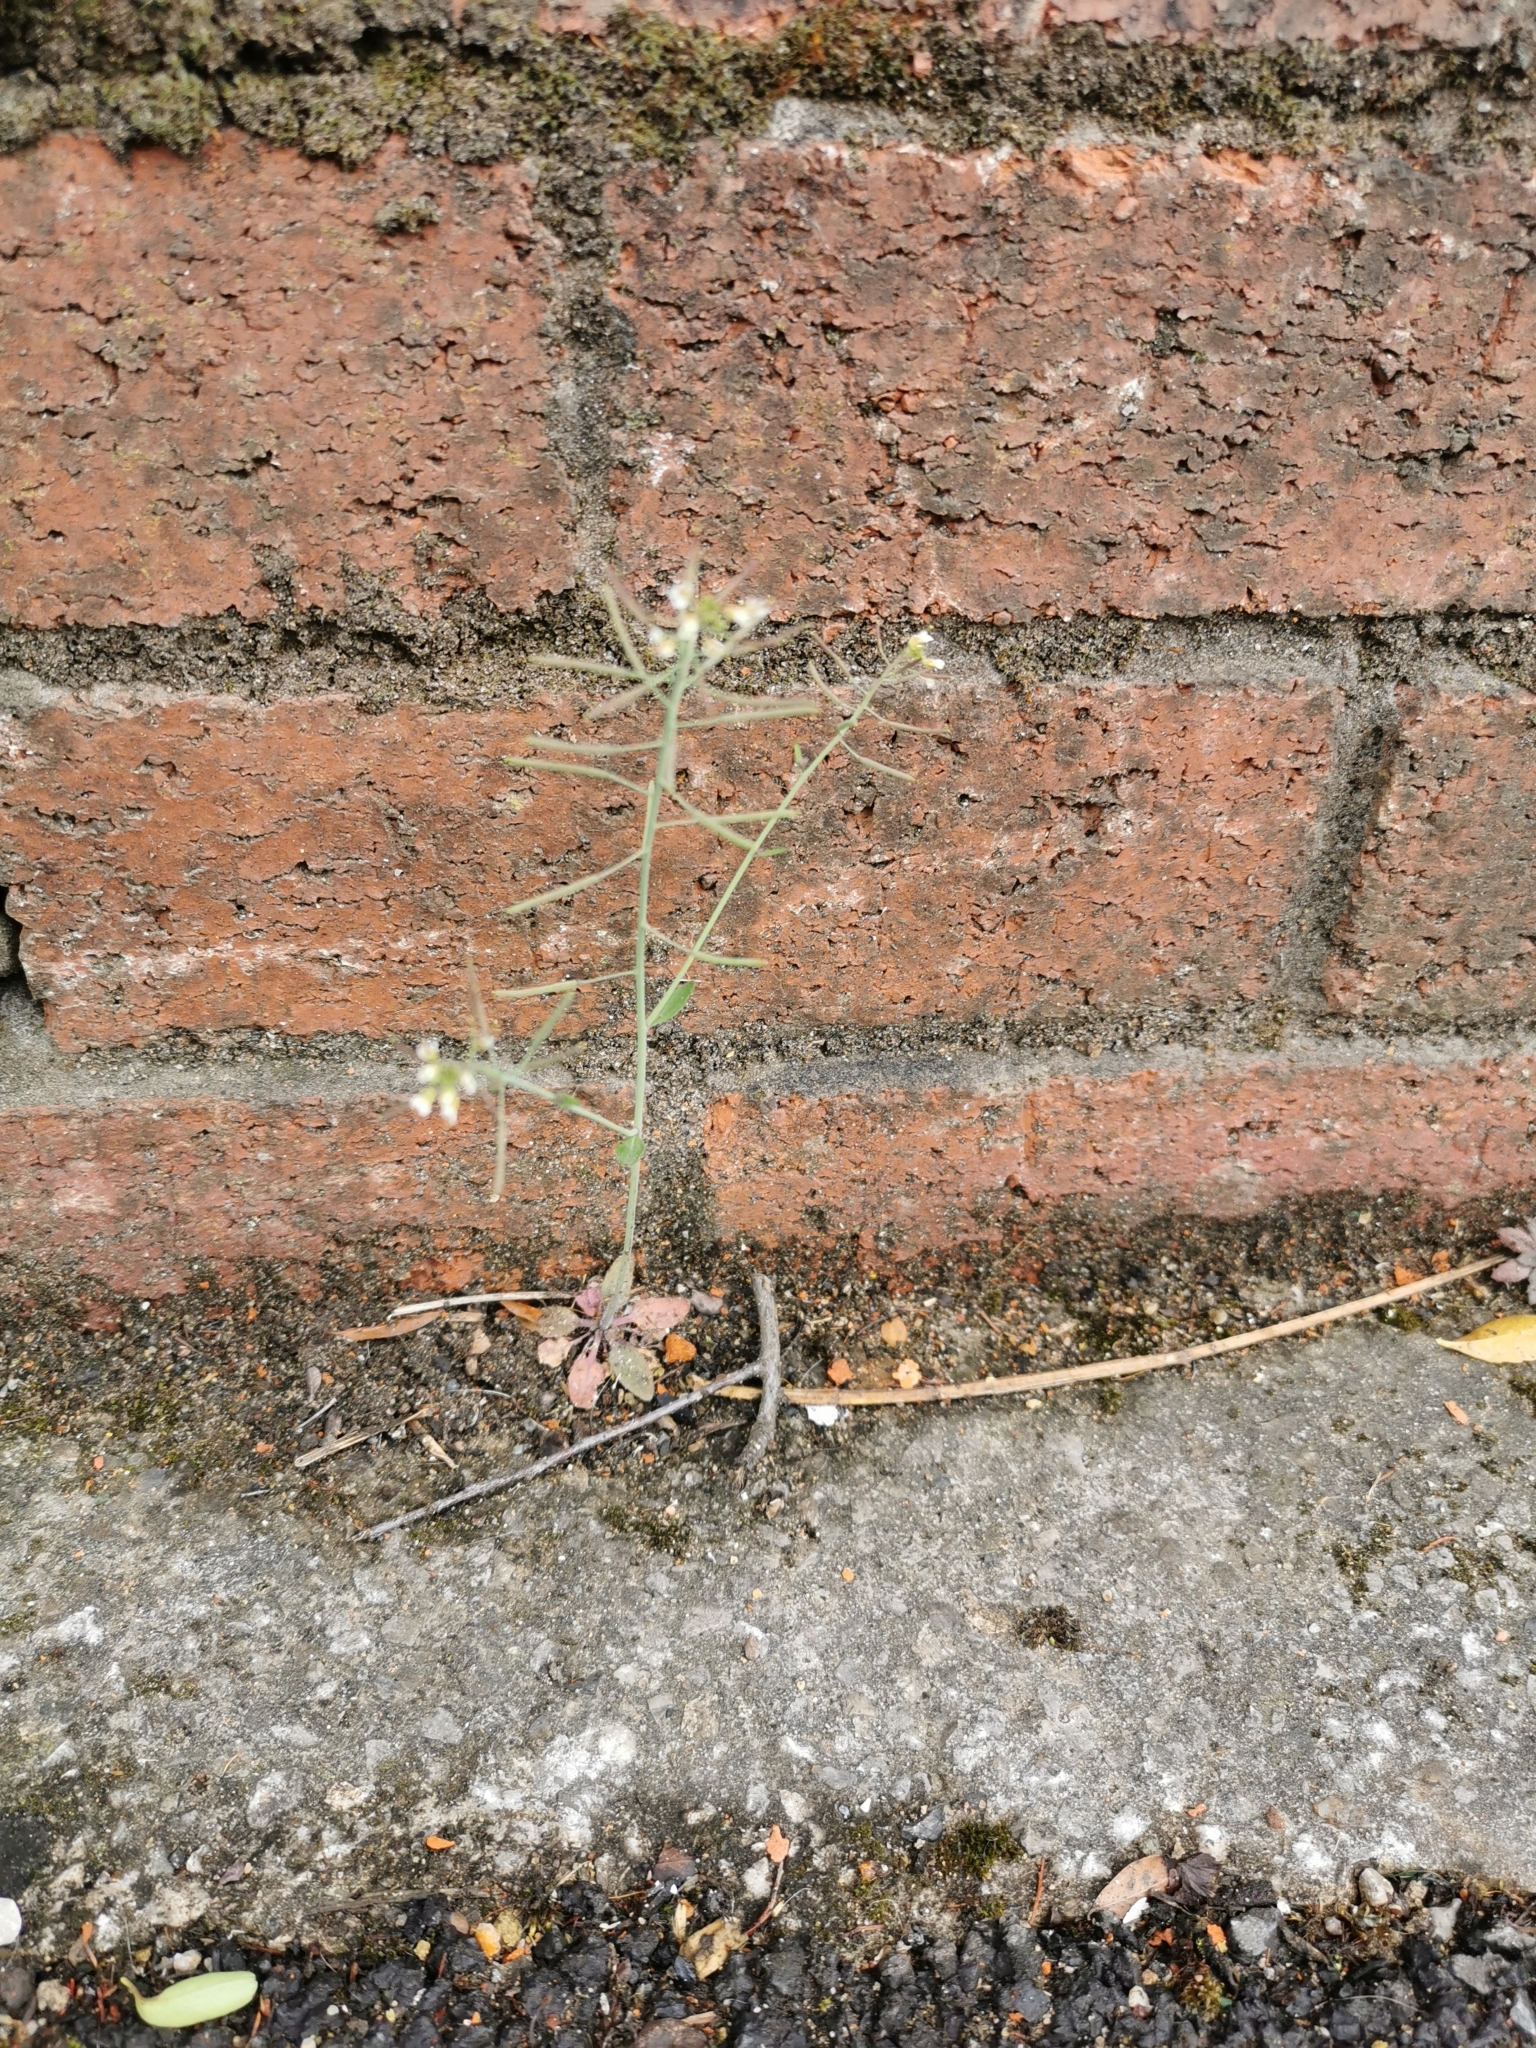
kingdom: Plantae
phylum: Tracheophyta
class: Magnoliopsida
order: Brassicales
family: Brassicaceae
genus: Arabidopsis
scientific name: Arabidopsis thaliana
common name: Thale cress
